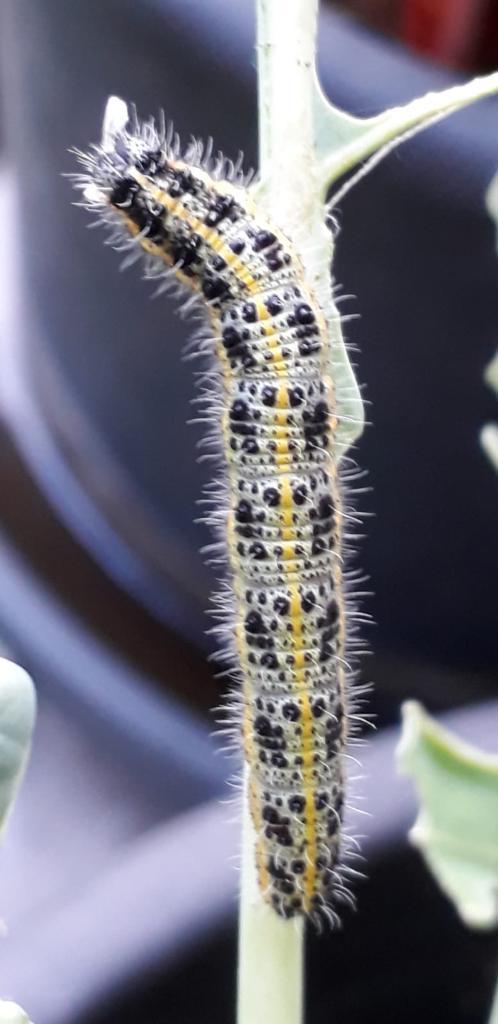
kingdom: Animalia
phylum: Arthropoda
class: Insecta
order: Lepidoptera
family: Pieridae
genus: Pieris
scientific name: Pieris brassicae
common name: Large white
